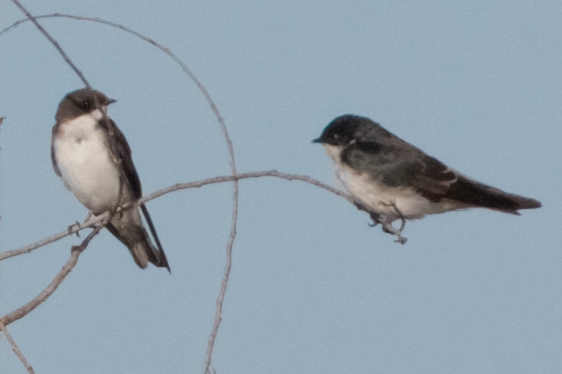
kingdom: Animalia
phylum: Chordata
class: Aves
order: Passeriformes
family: Hirundinidae
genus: Tachycineta
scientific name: Tachycineta bicolor
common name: Tree swallow
